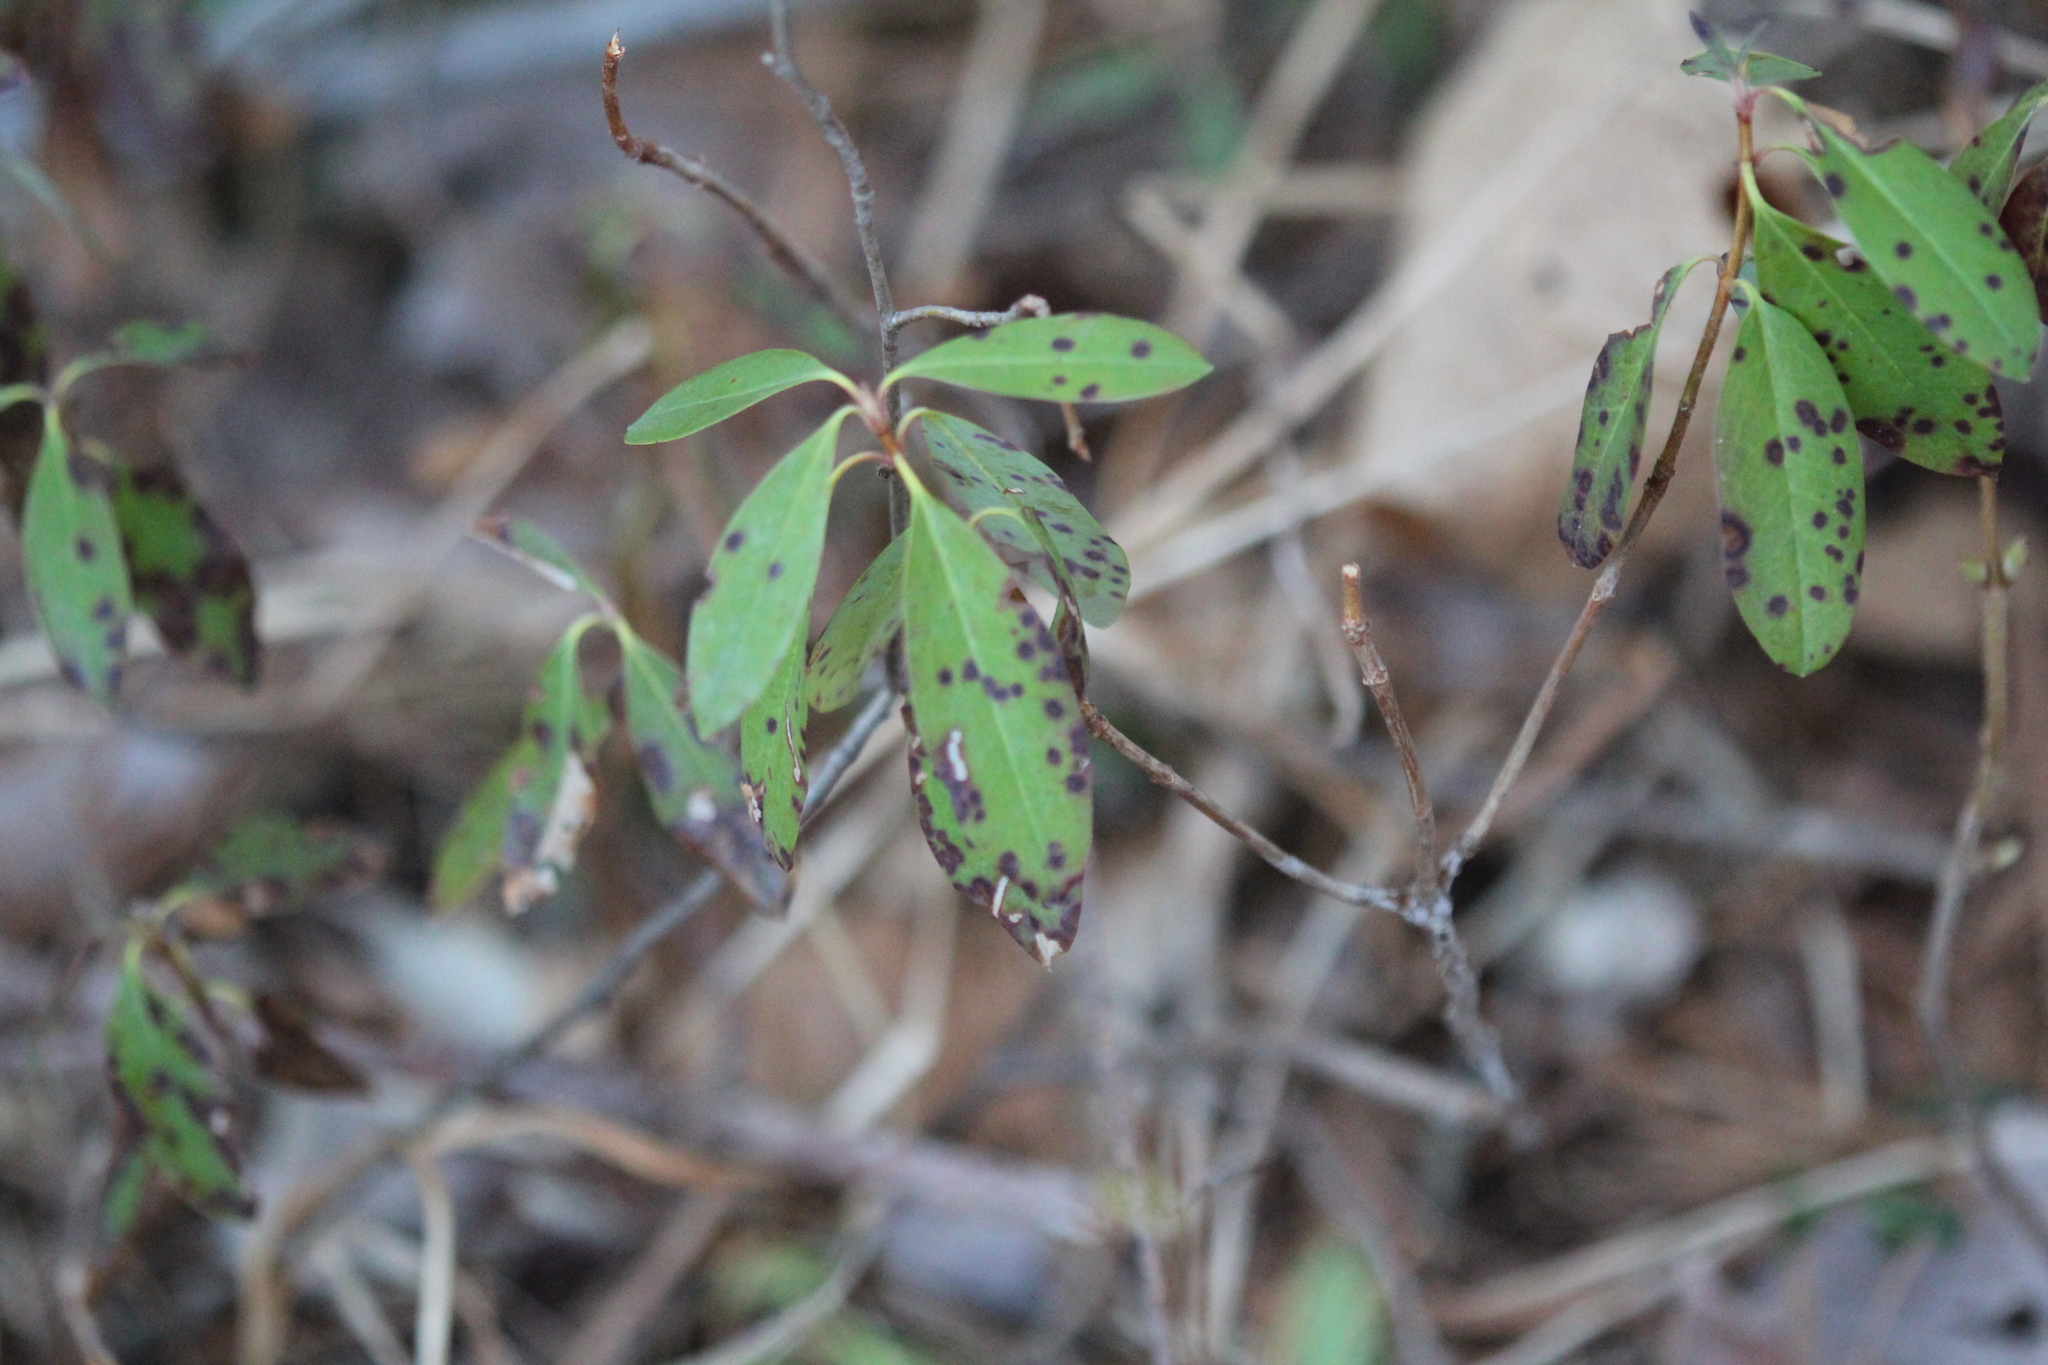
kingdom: Plantae
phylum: Tracheophyta
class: Magnoliopsida
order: Ericales
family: Ericaceae
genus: Kalmia
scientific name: Kalmia angustifolia
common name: Sheep-laurel
